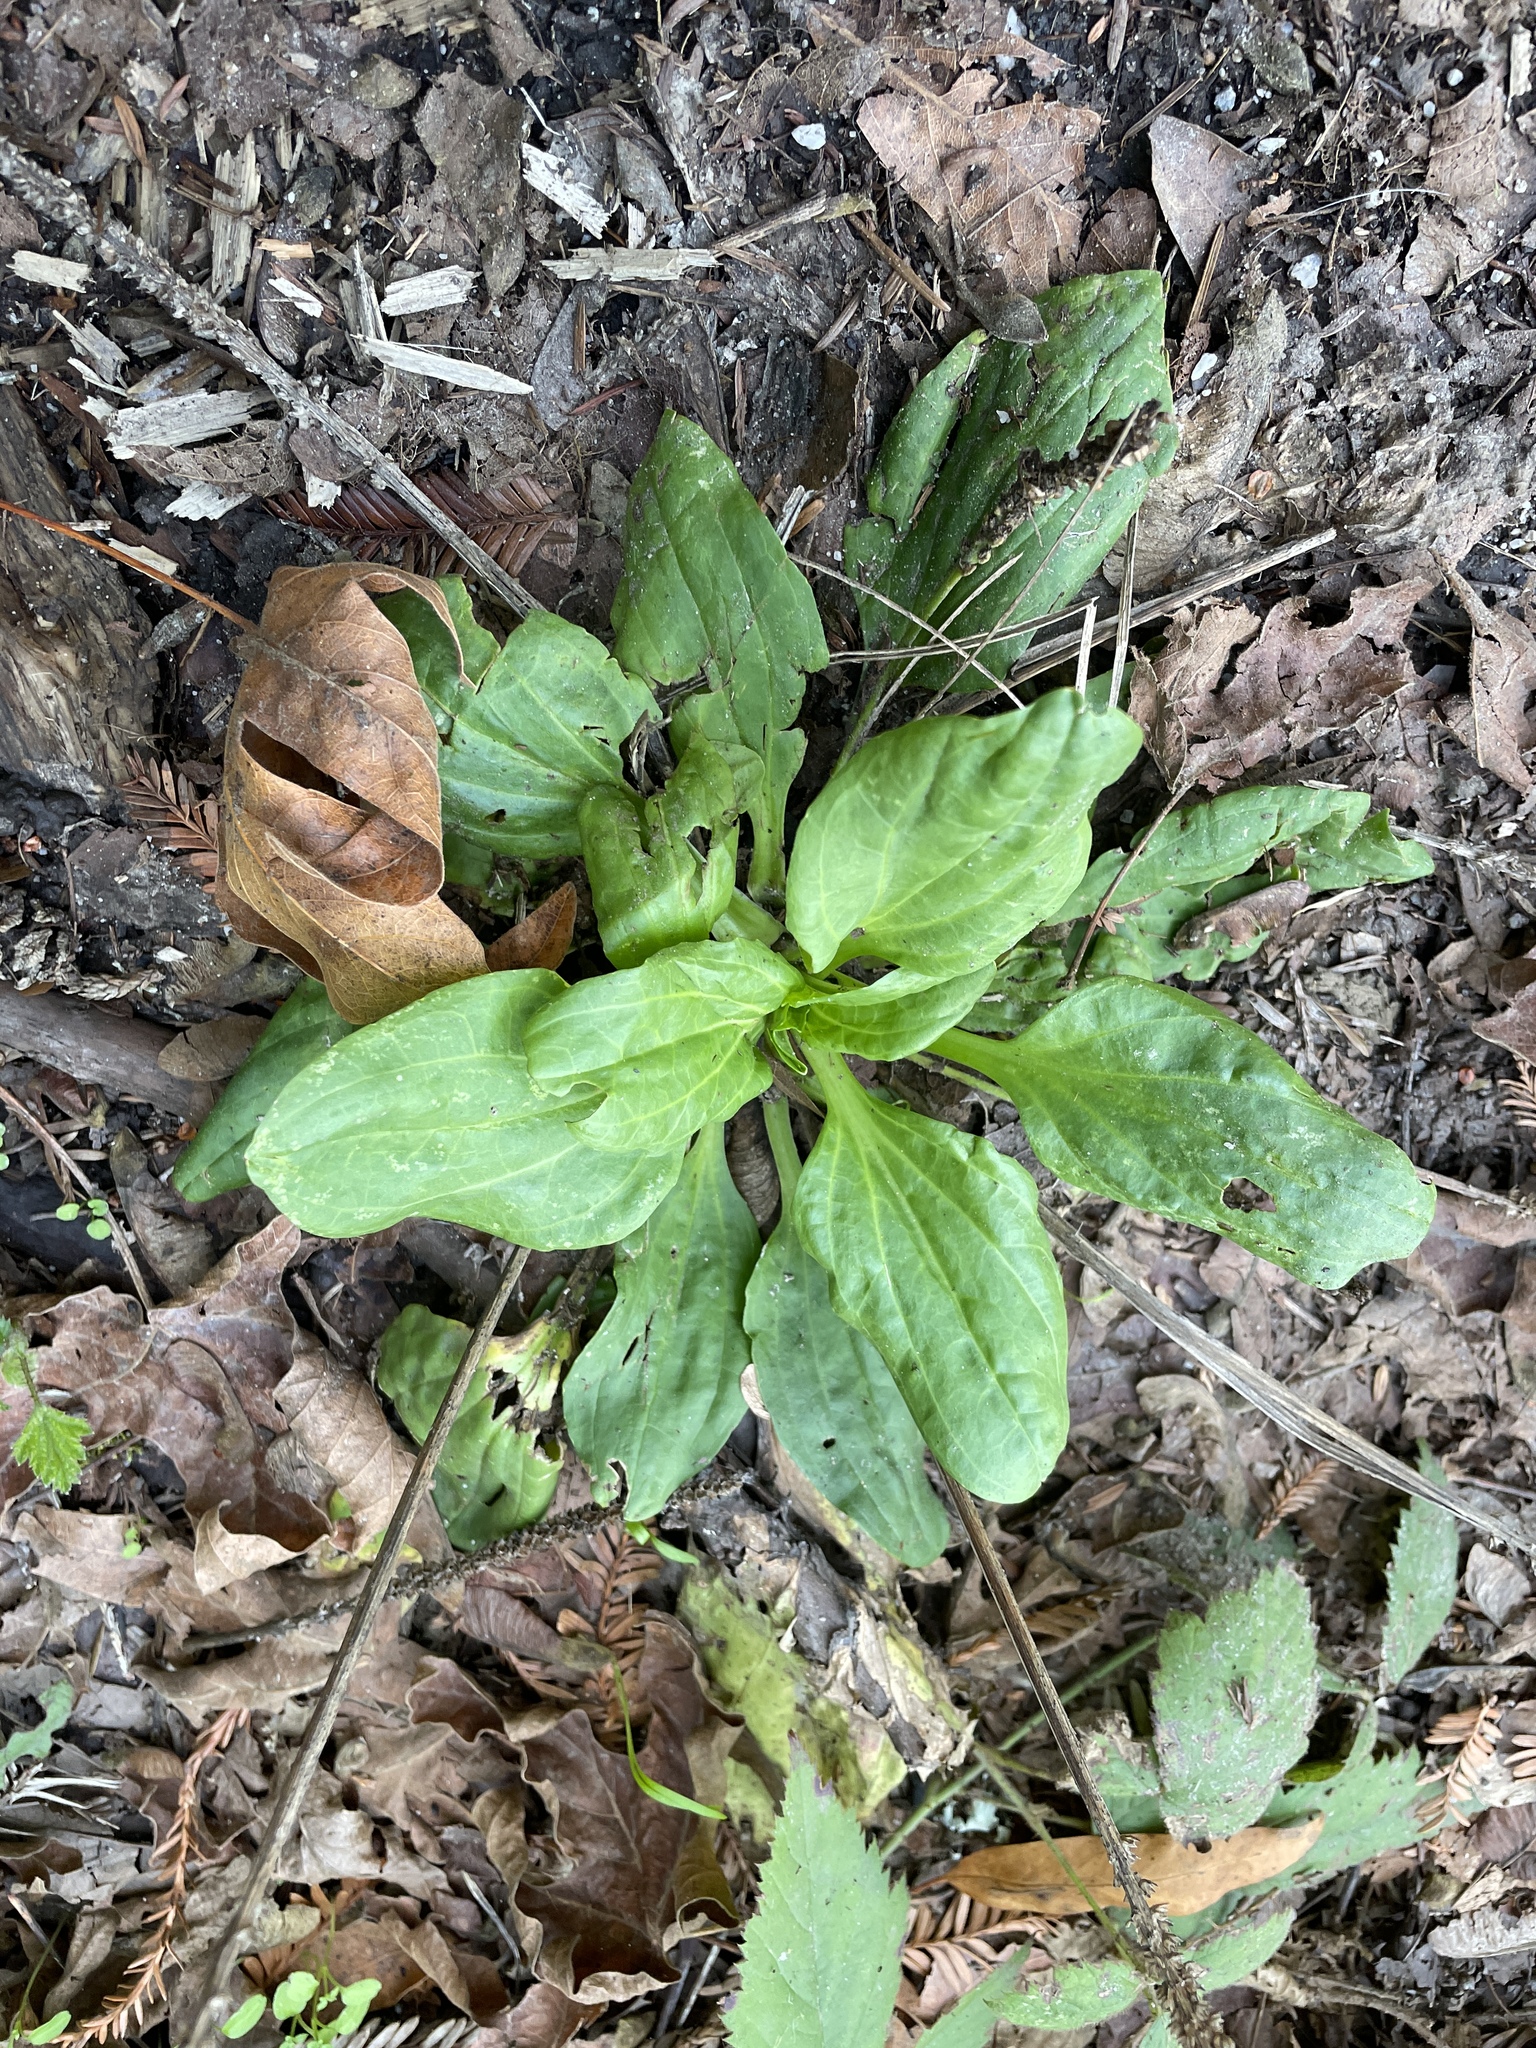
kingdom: Plantae
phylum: Tracheophyta
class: Magnoliopsida
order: Lamiales
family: Plantaginaceae
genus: Plantago
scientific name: Plantago major
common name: Common plantain
